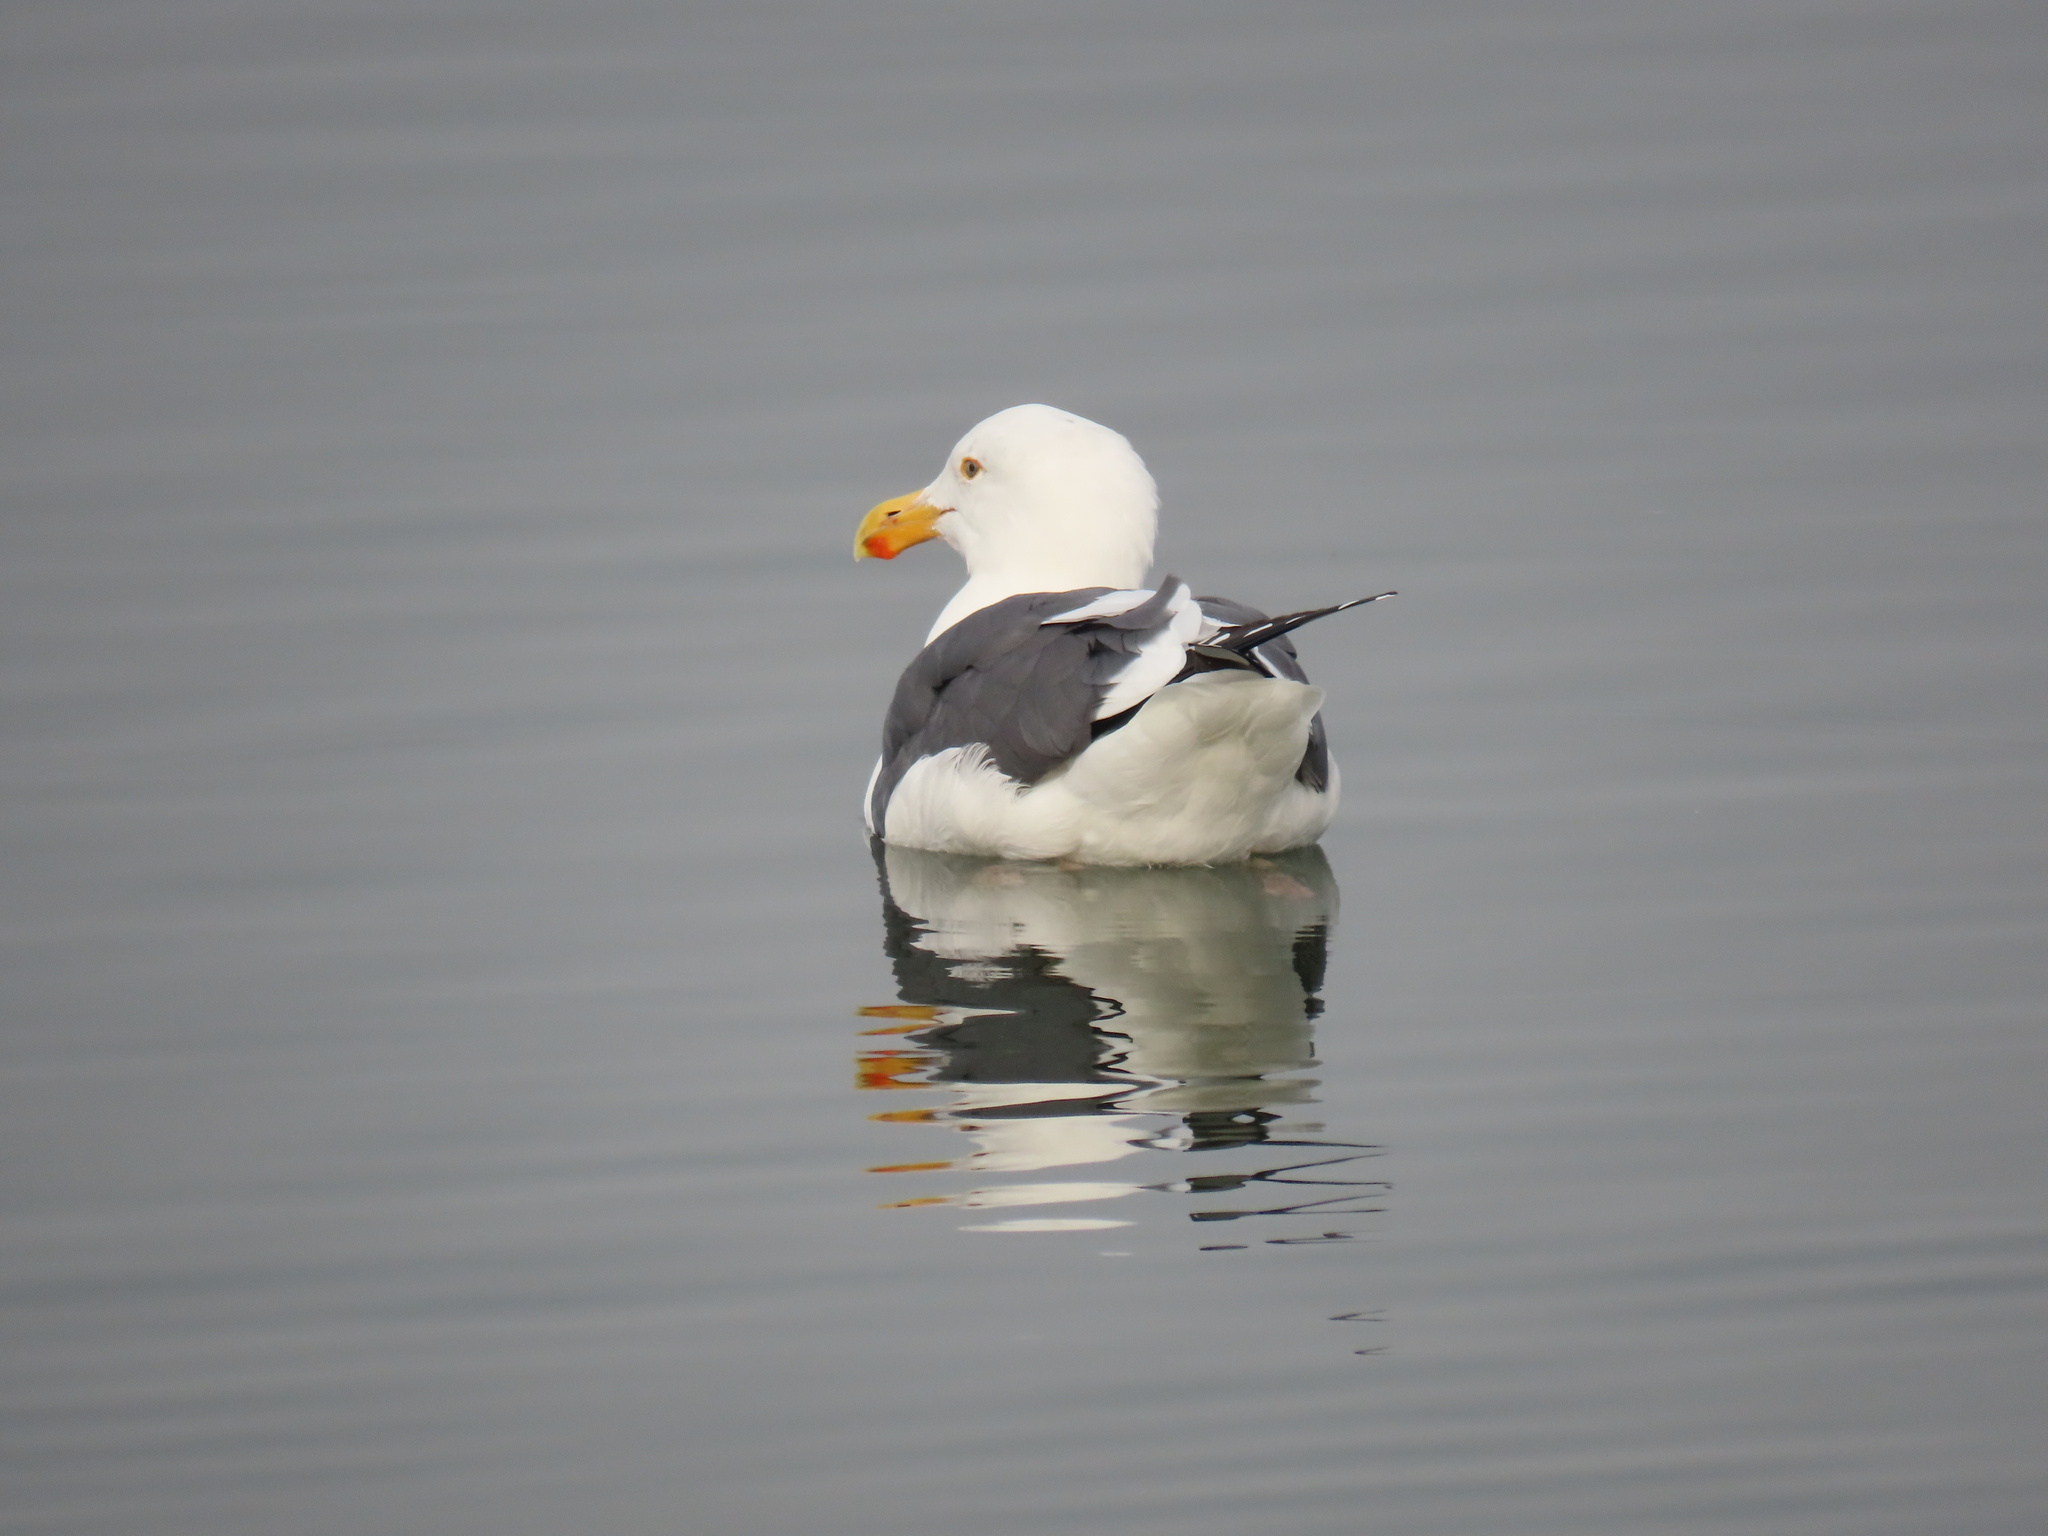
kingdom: Animalia
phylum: Chordata
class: Aves
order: Charadriiformes
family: Laridae
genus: Larus
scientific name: Larus occidentalis
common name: Western gull
